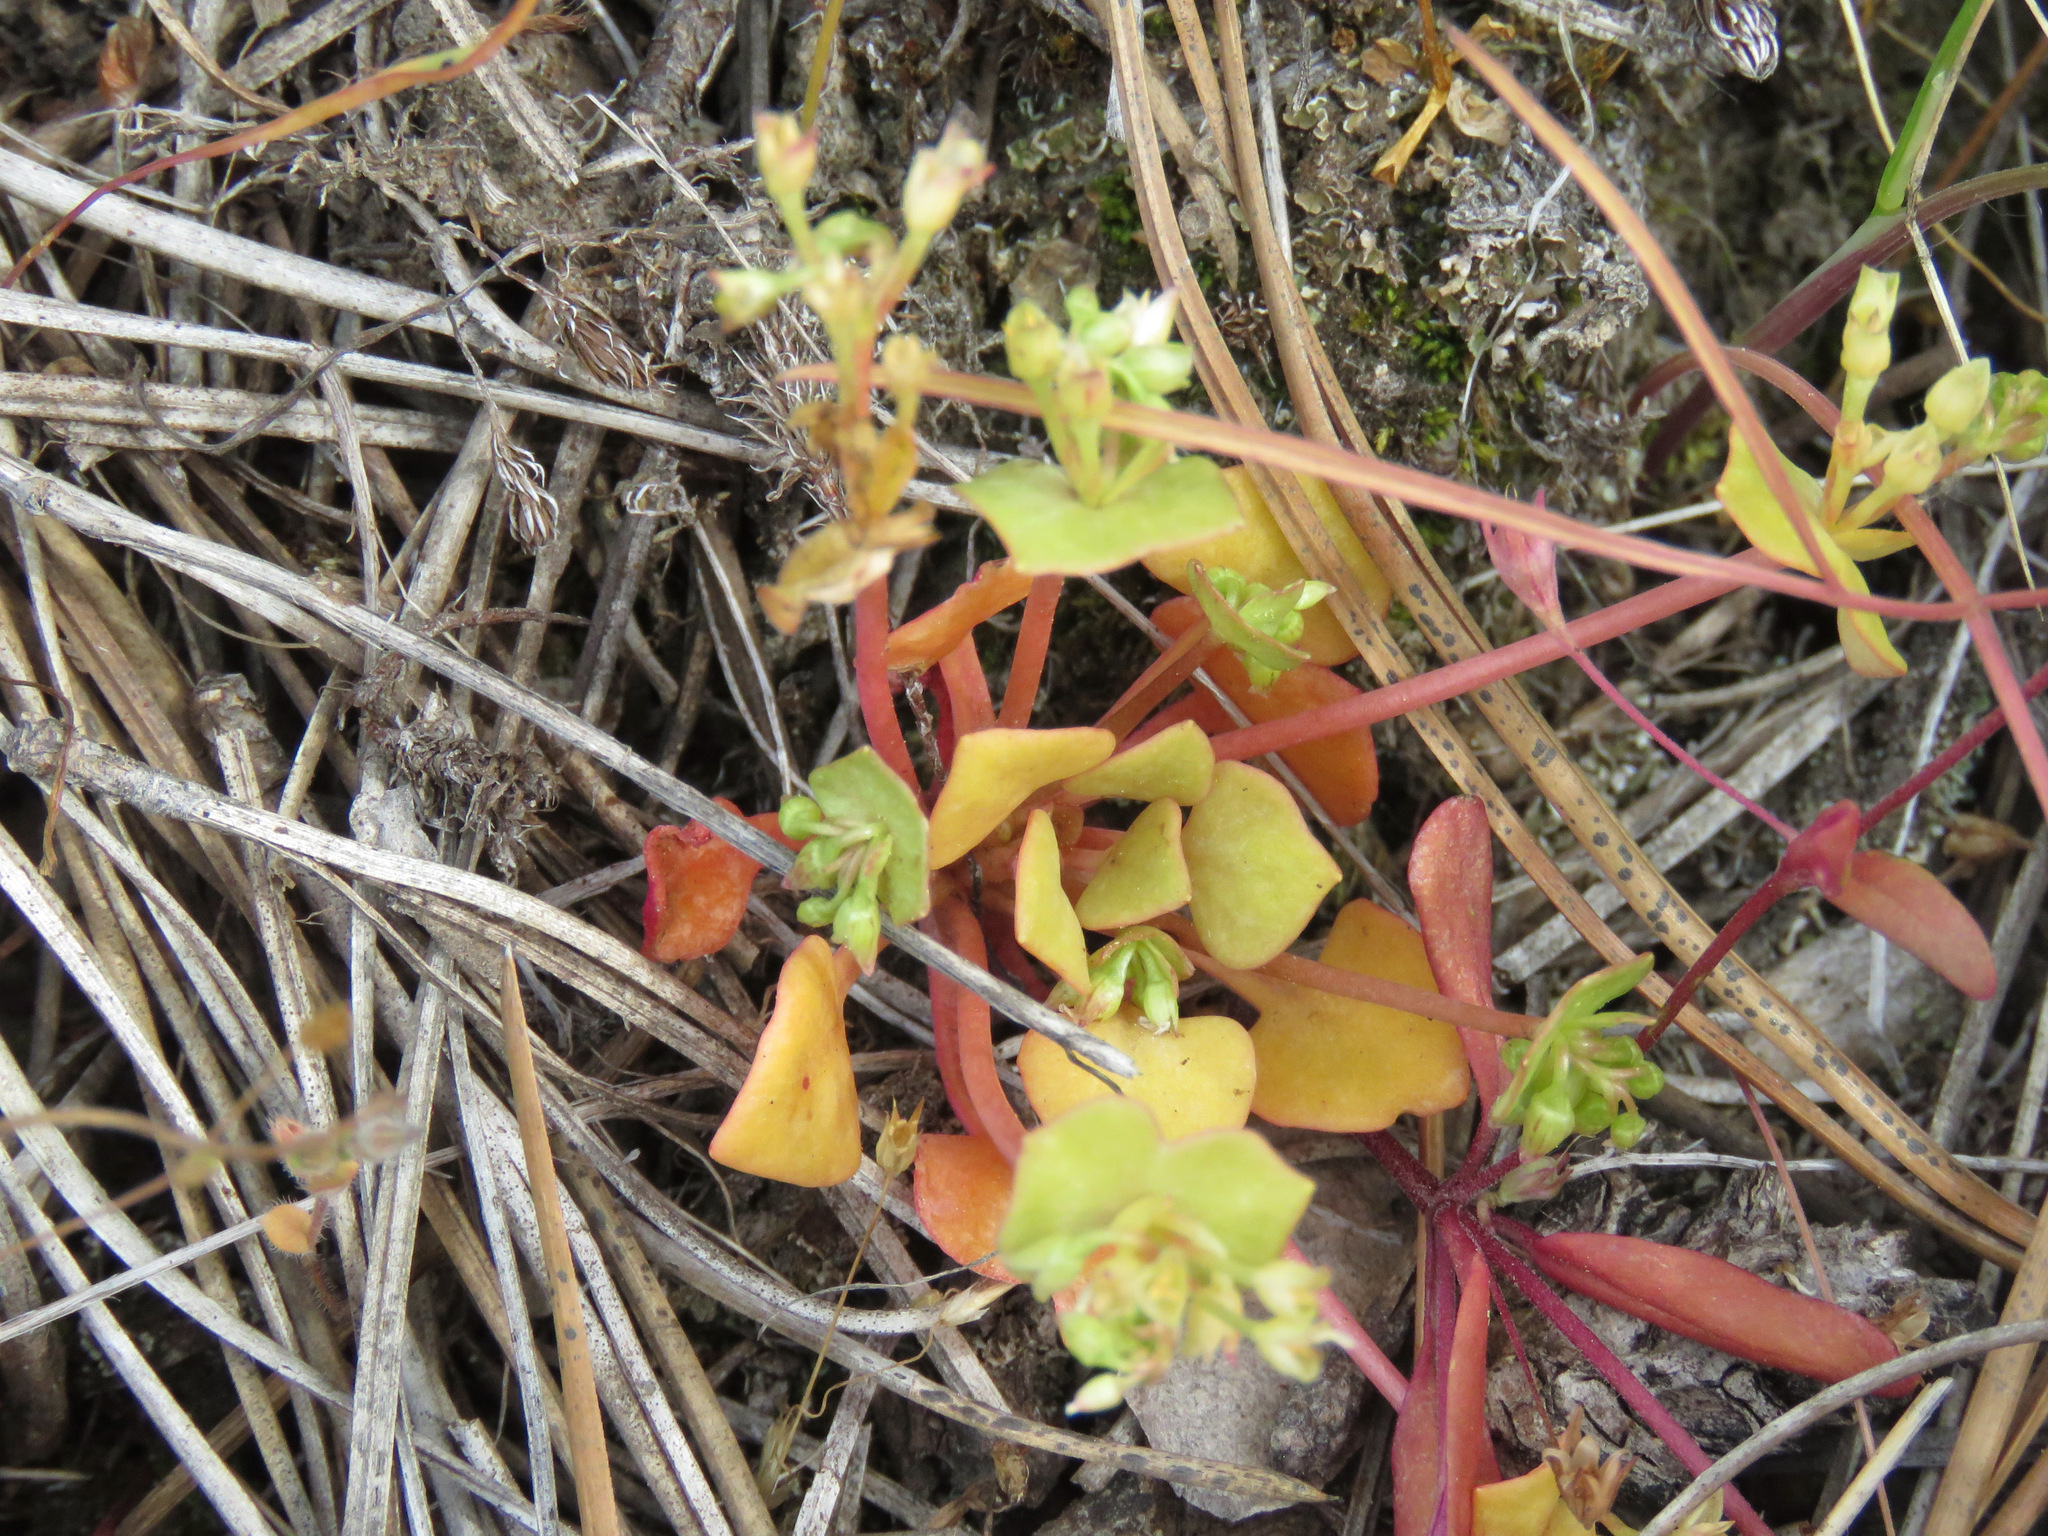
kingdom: Plantae
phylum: Tracheophyta
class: Magnoliopsida
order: Caryophyllales
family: Montiaceae
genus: Claytonia
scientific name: Claytonia rubra
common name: Erubescent miner's-lettuce
